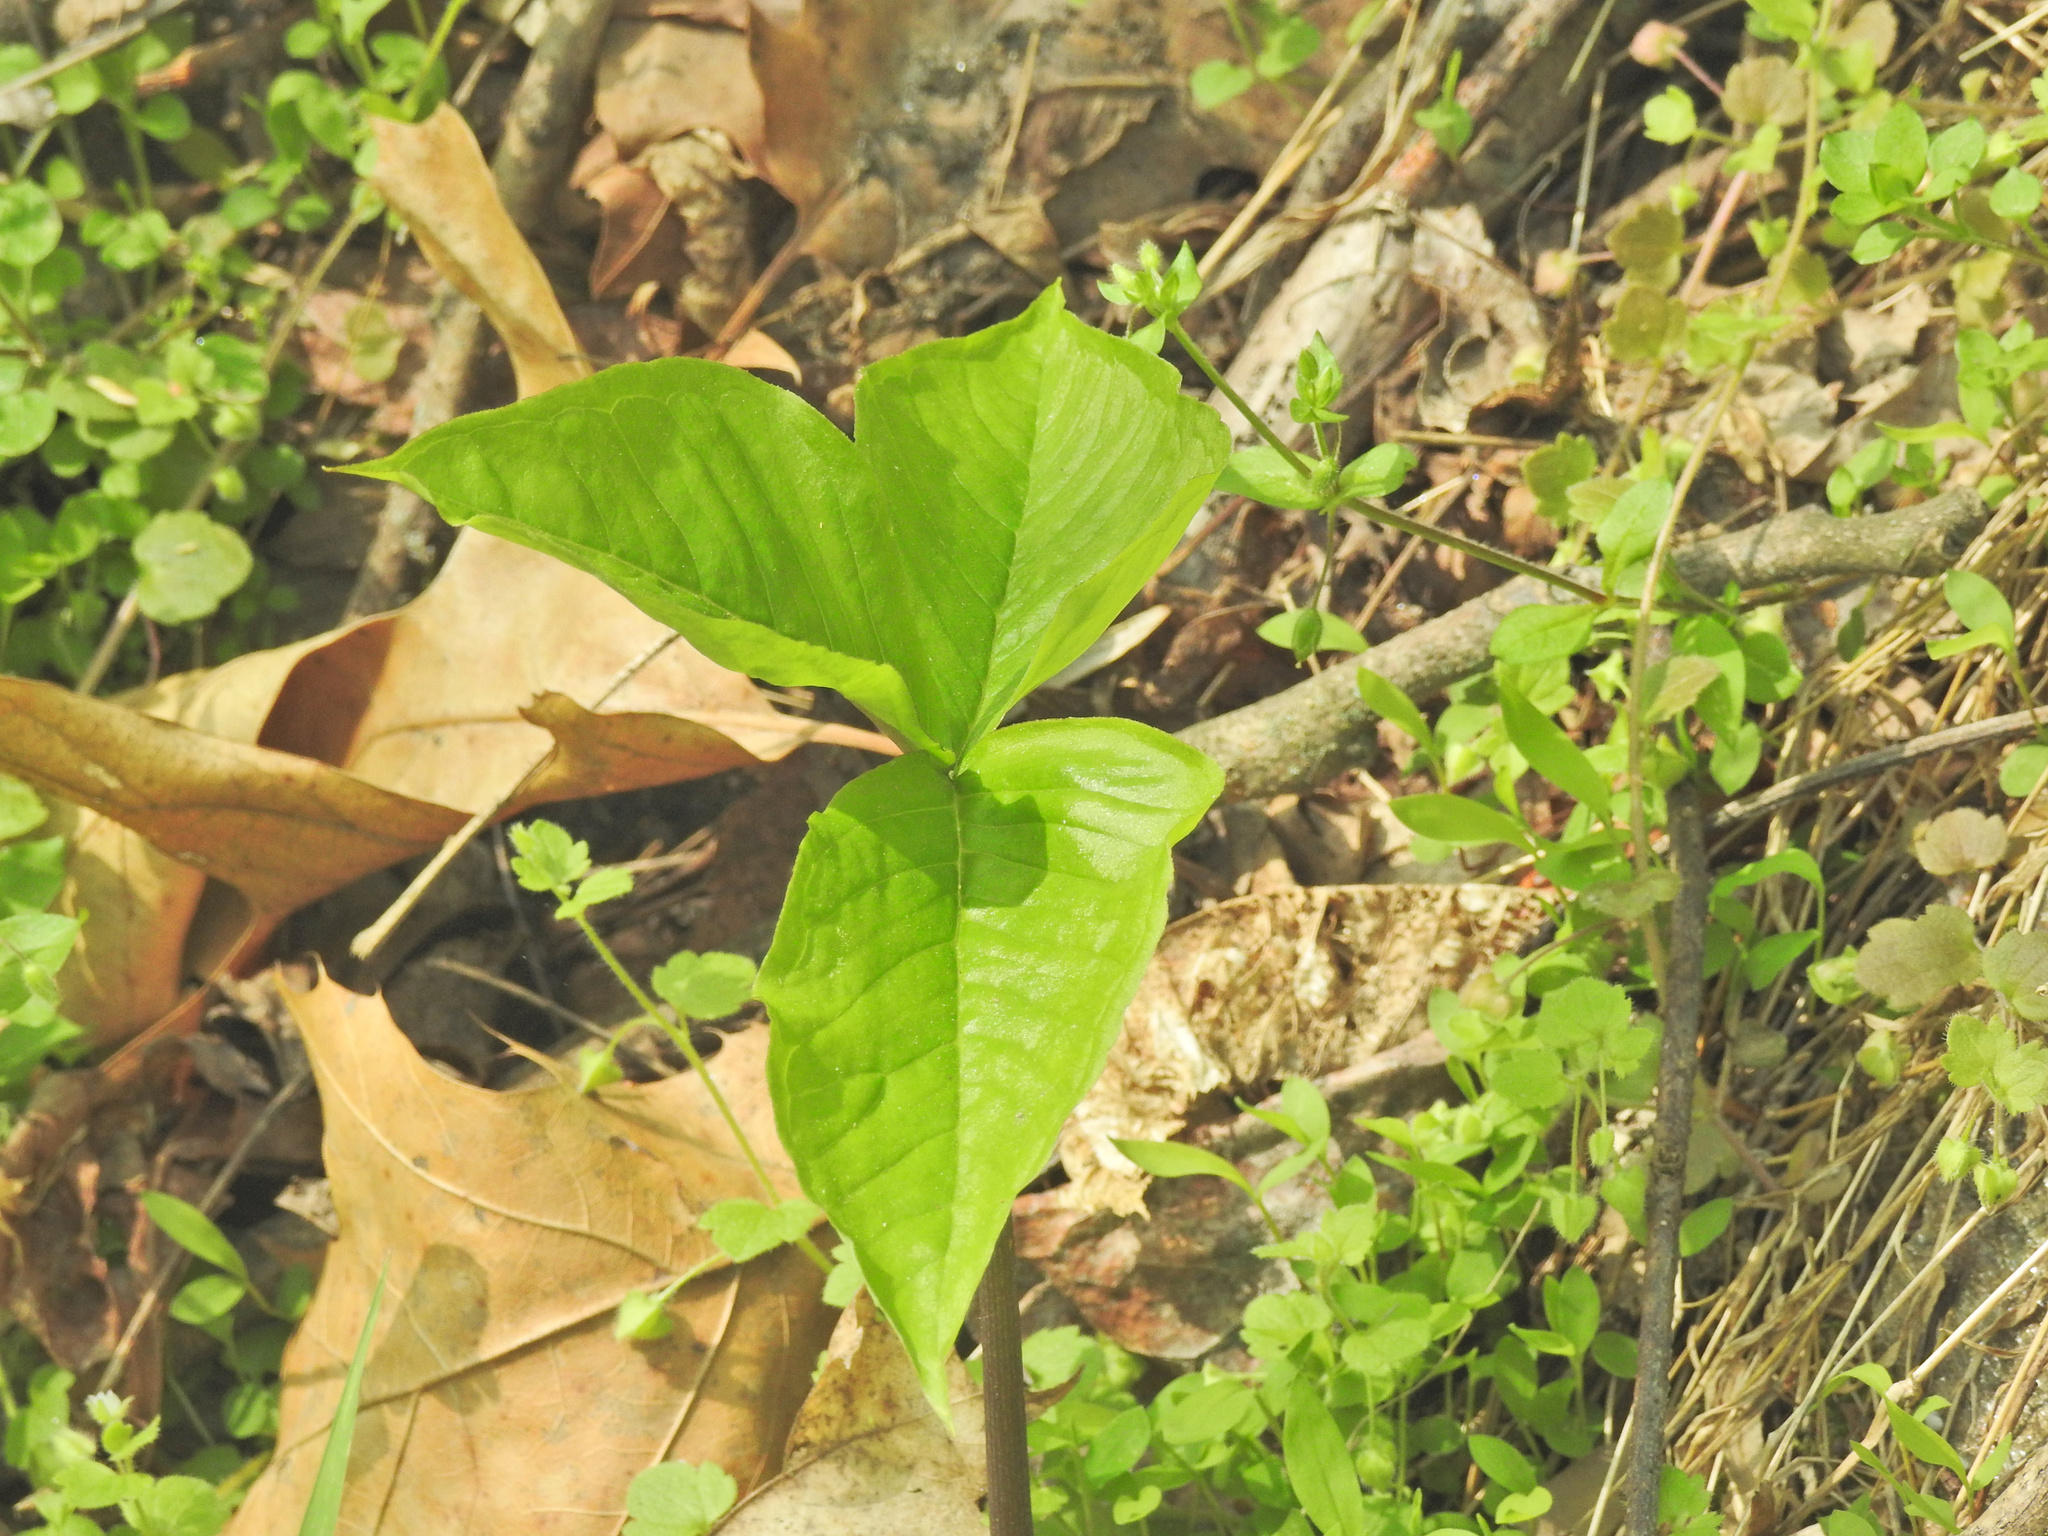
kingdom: Plantae
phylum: Tracheophyta
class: Liliopsida
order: Alismatales
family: Araceae
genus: Arisaema
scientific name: Arisaema triphyllum
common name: Jack-in-the-pulpit
